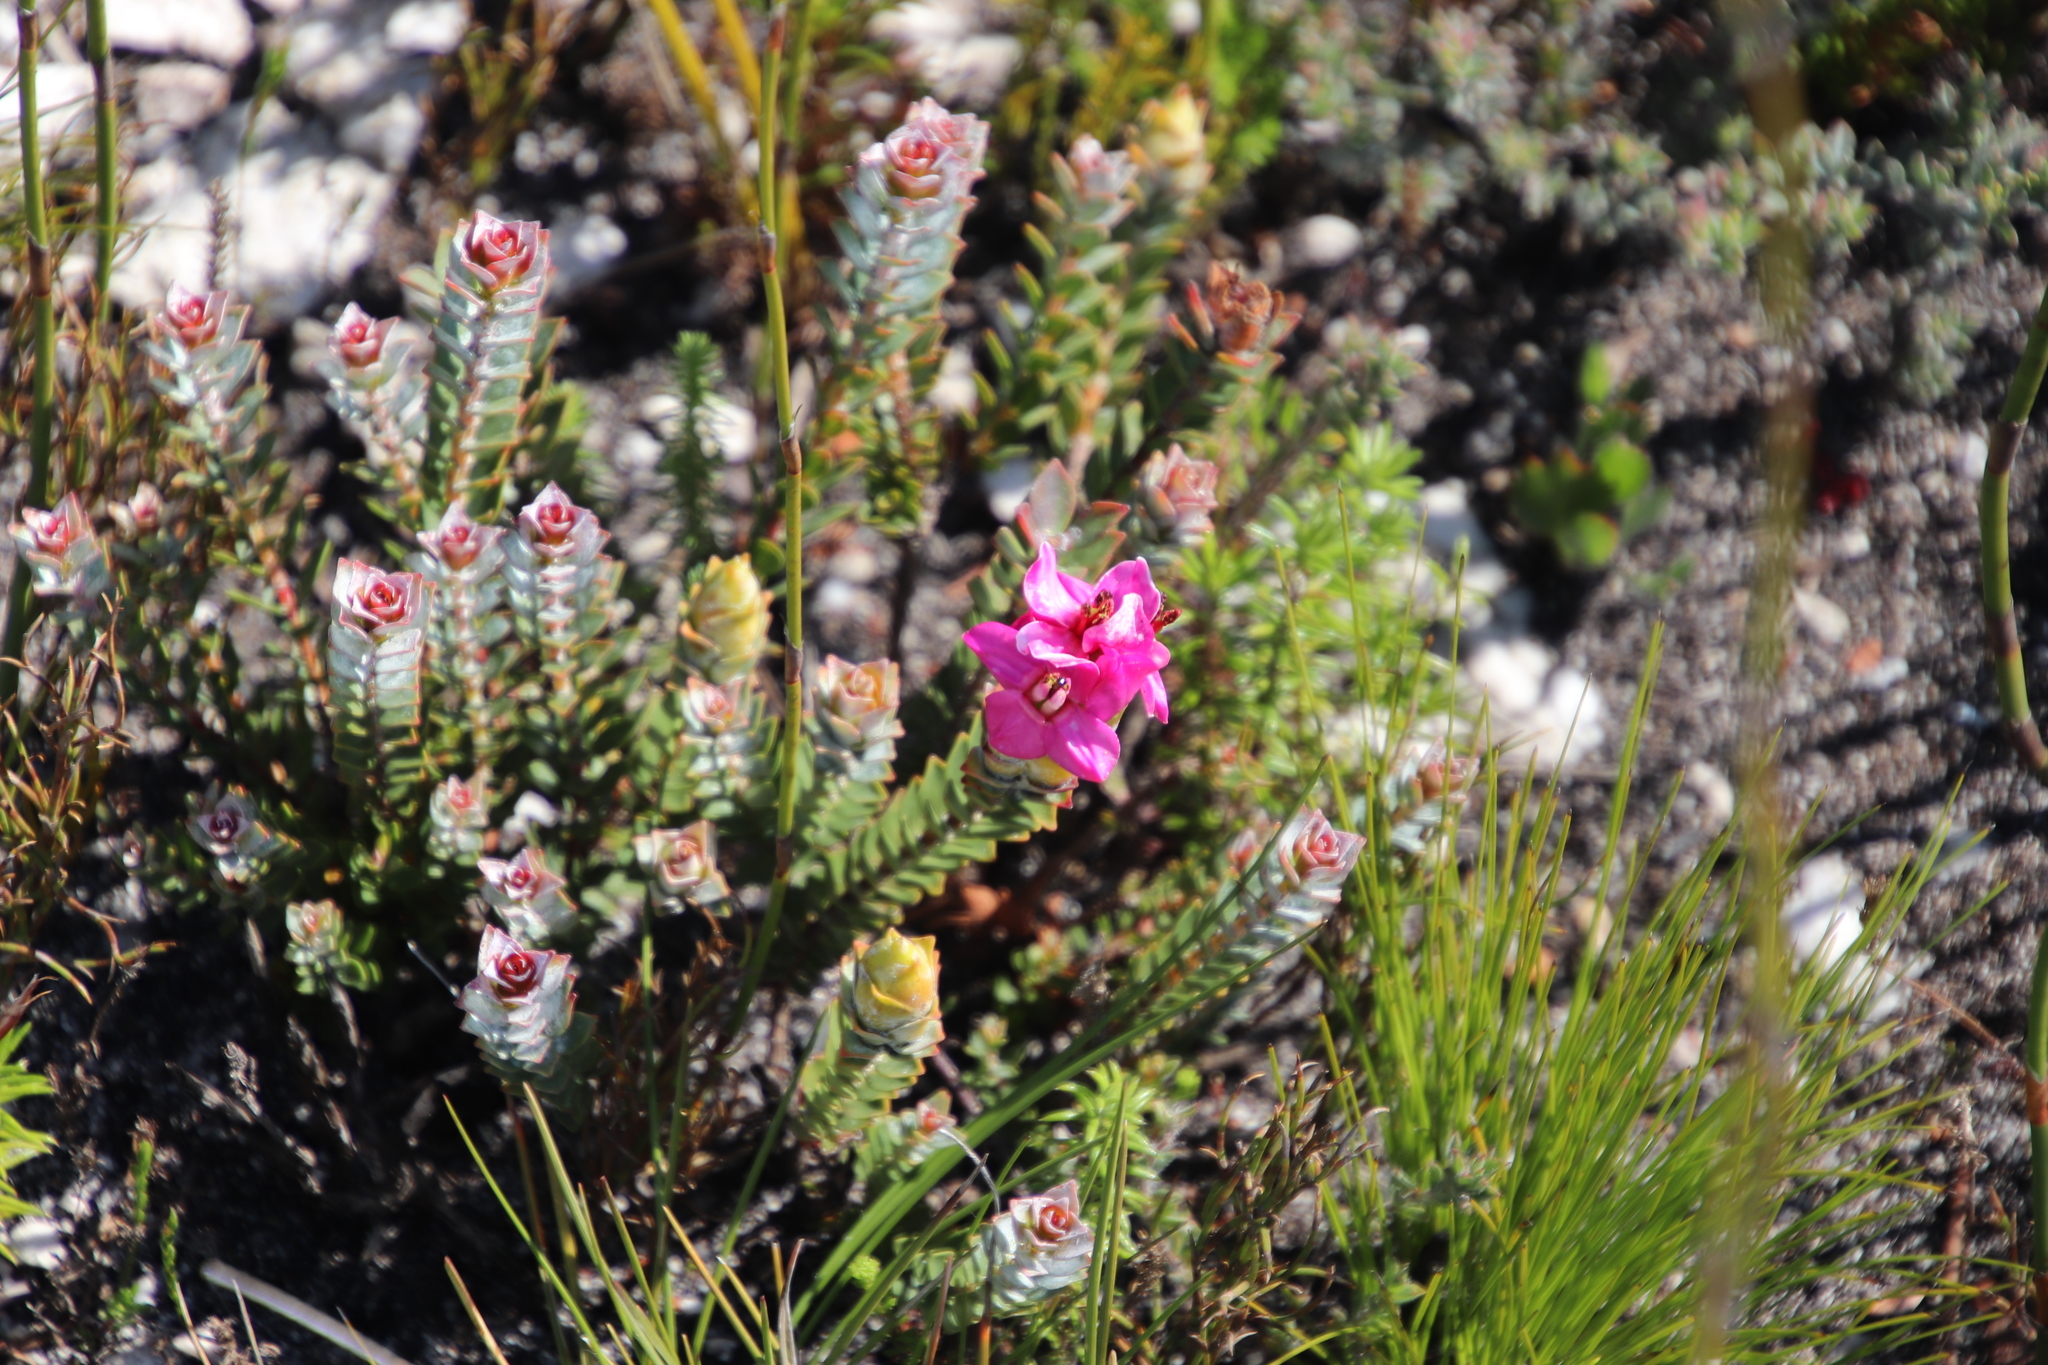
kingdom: Plantae
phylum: Tracheophyta
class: Magnoliopsida
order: Myrtales
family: Penaeaceae
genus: Saltera
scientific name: Saltera sarcocolla
